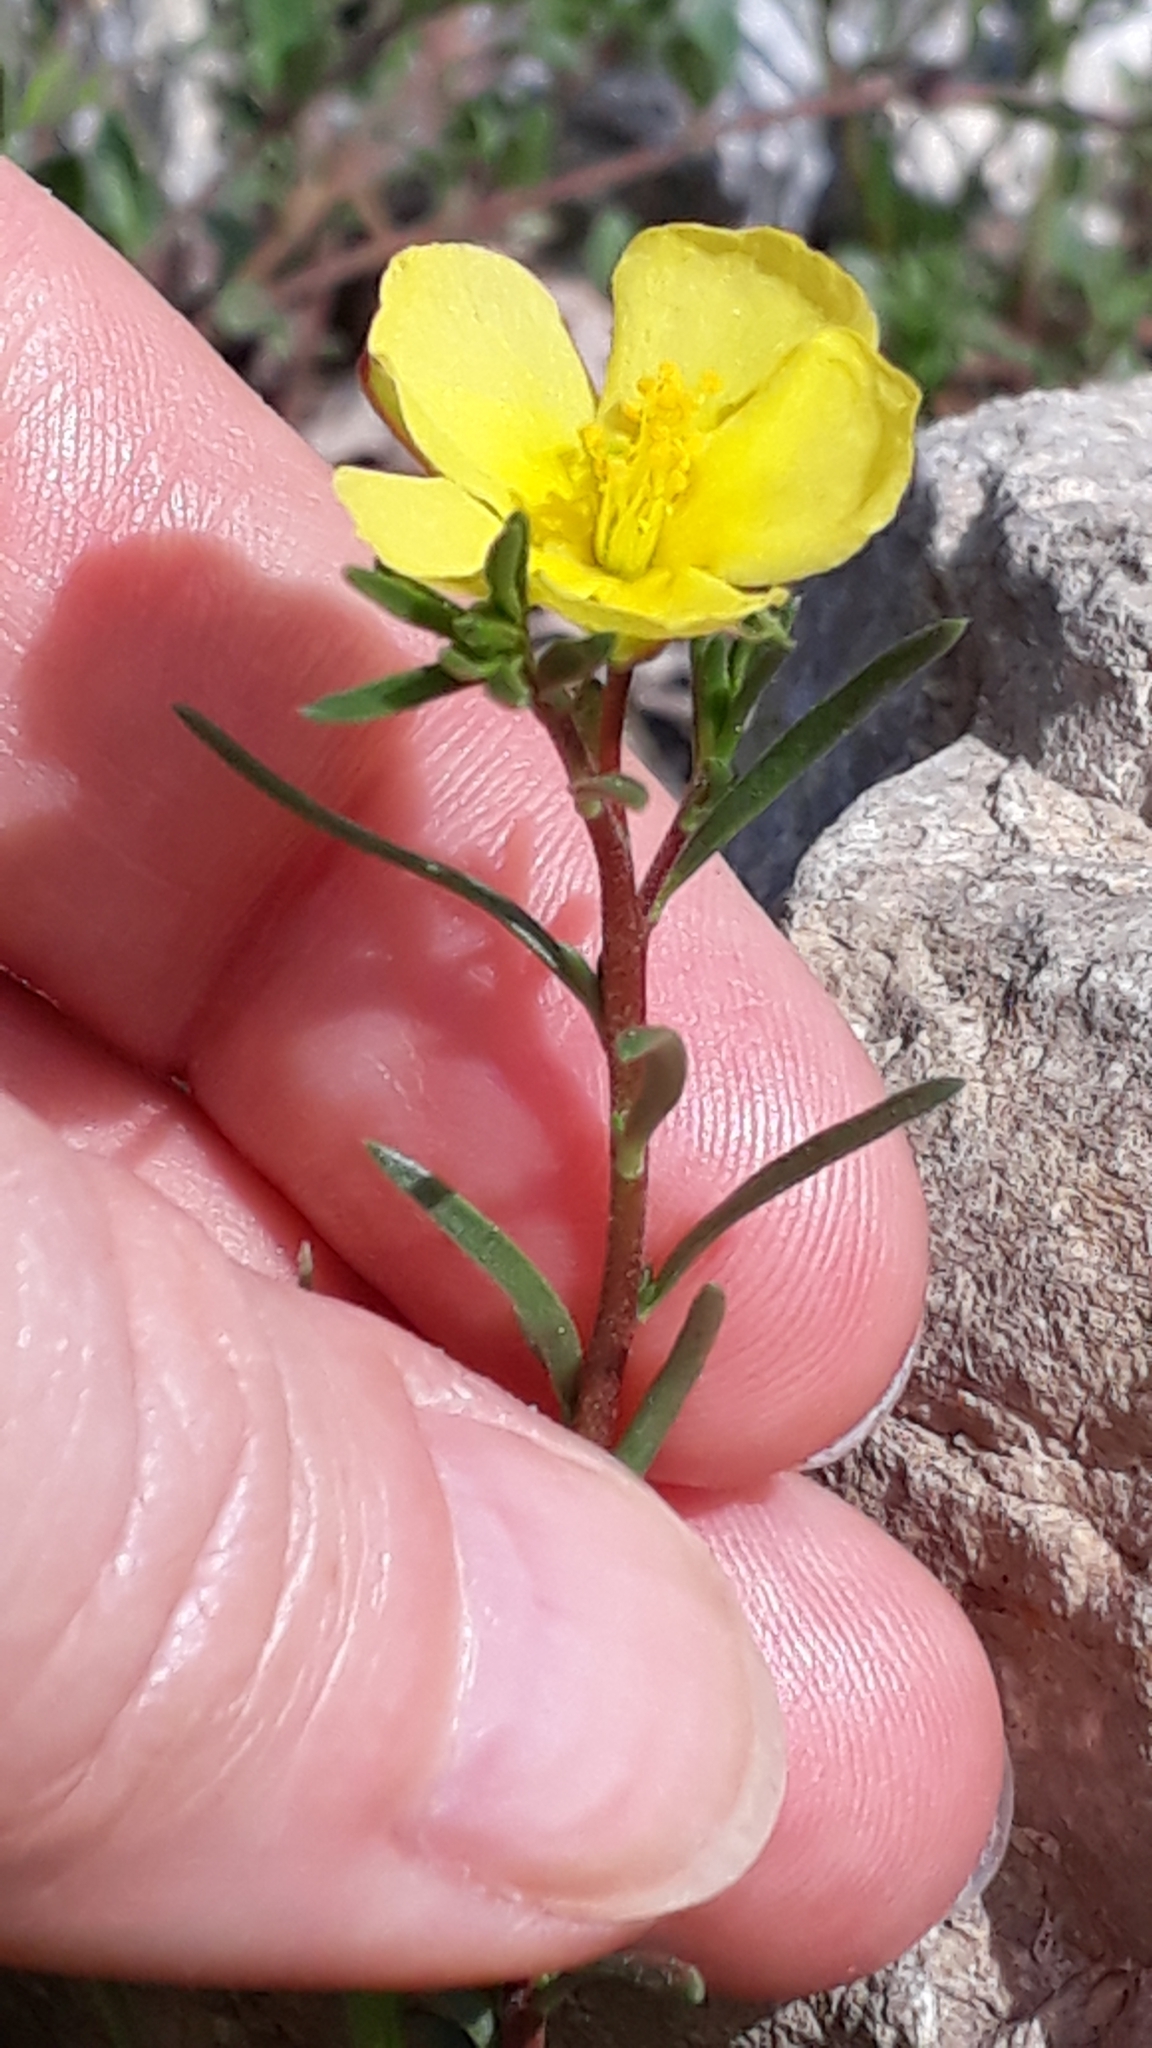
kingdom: Plantae
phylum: Tracheophyta
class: Magnoliopsida
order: Malvales
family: Cistaceae
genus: Fumana
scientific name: Fumana procumbens
